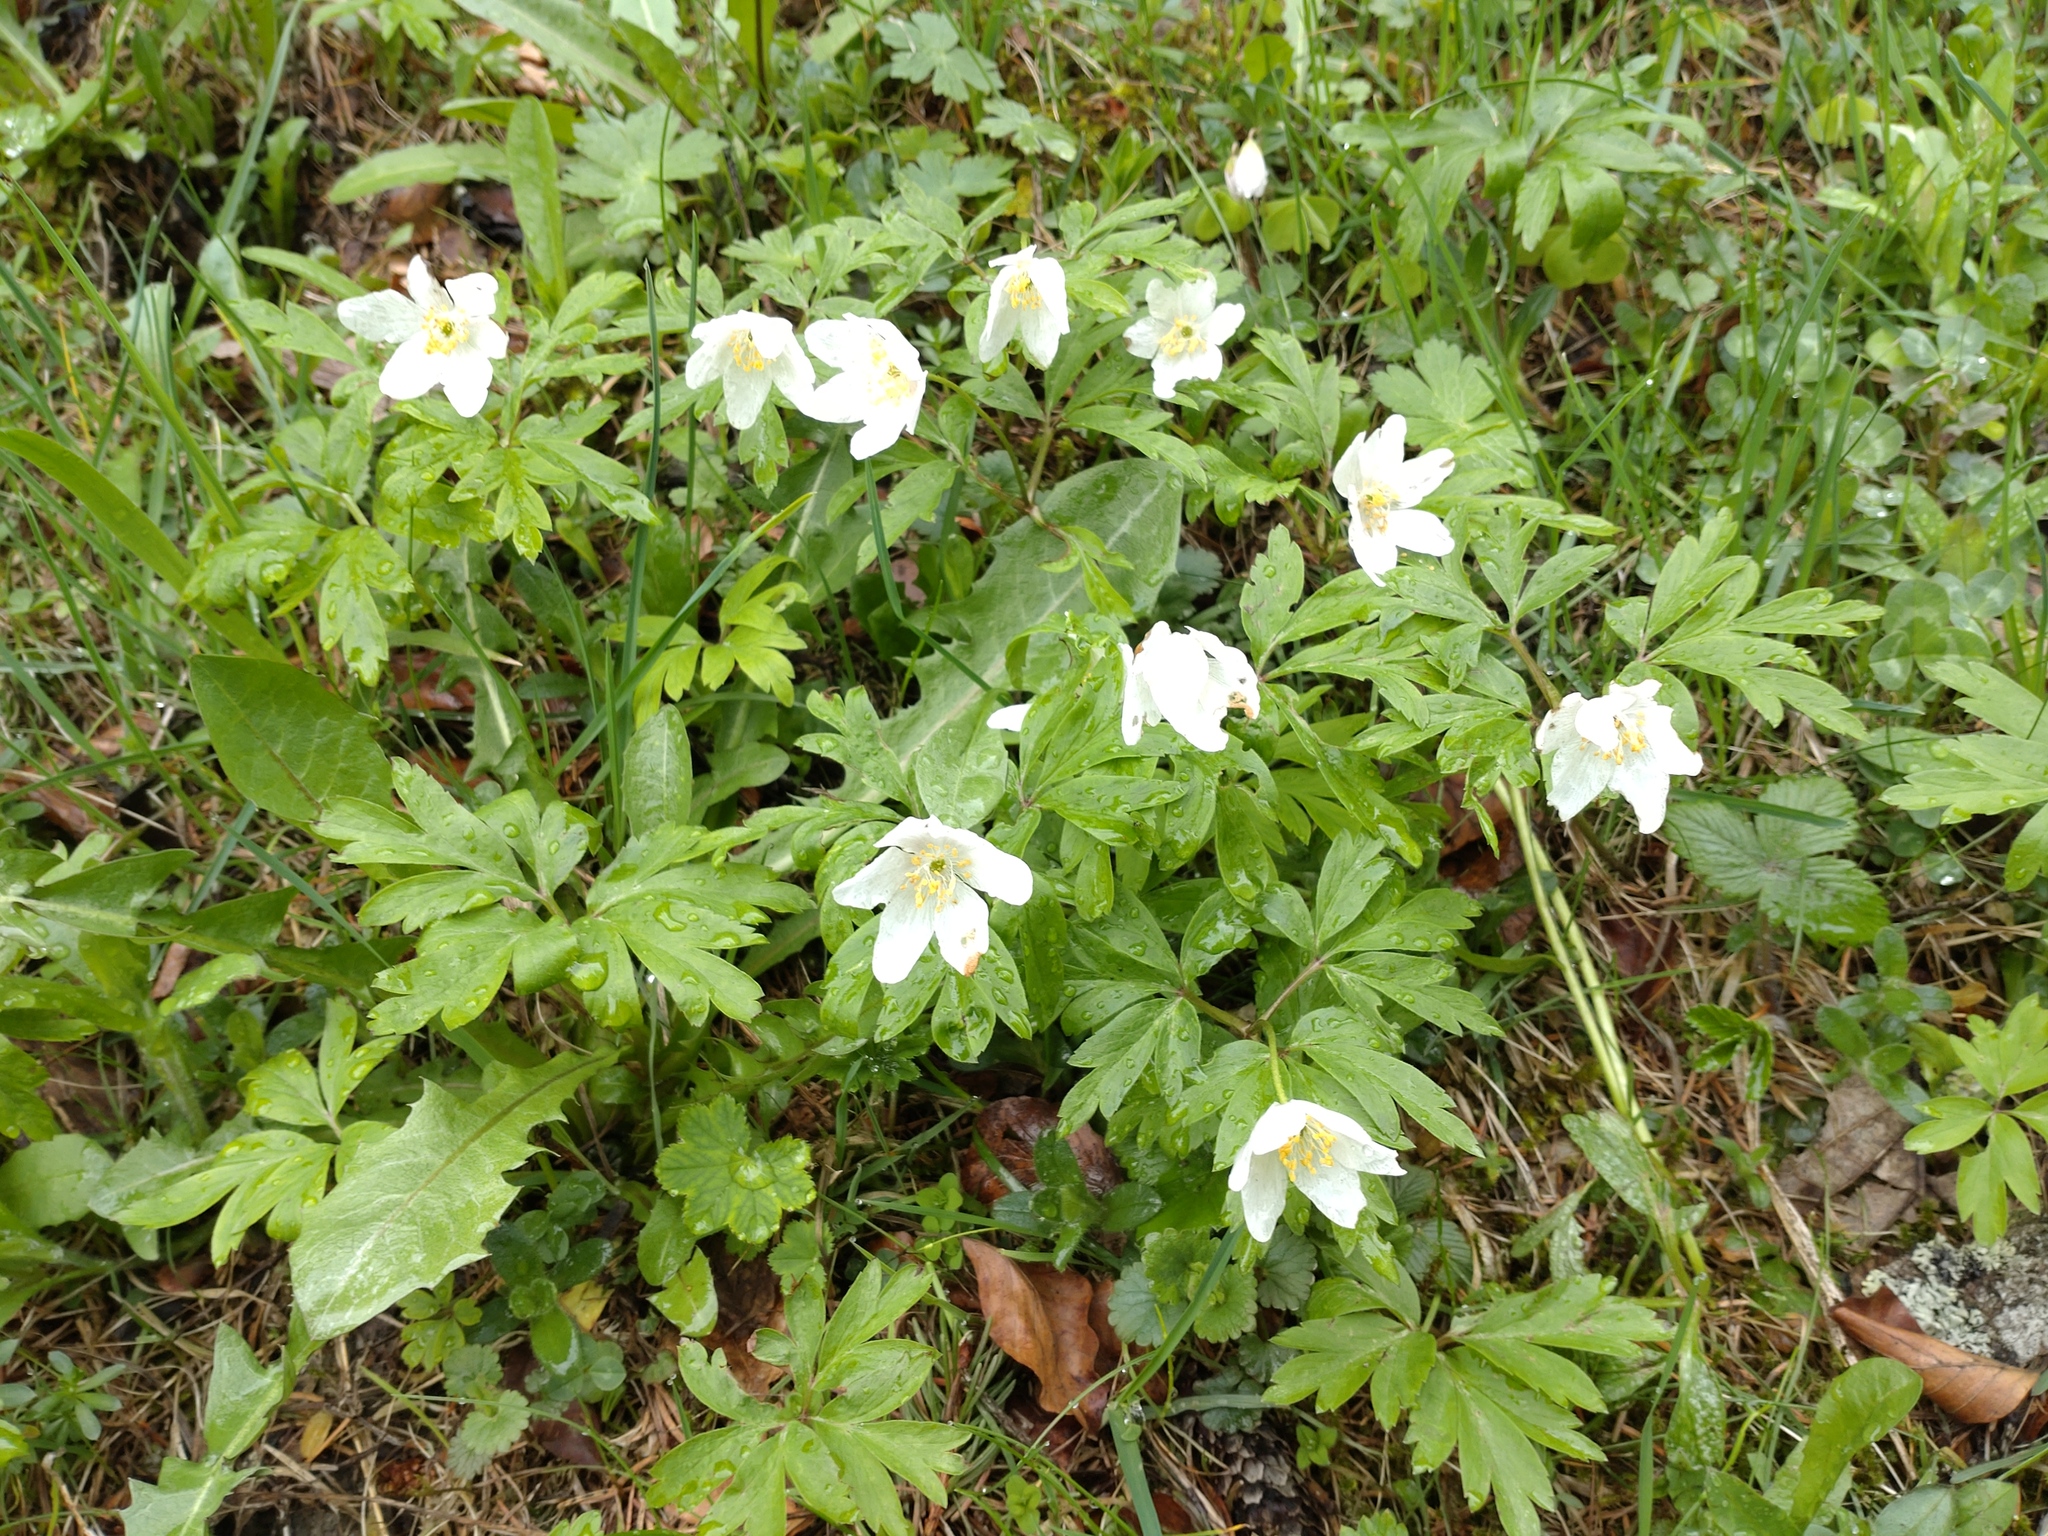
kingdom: Plantae
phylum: Tracheophyta
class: Magnoliopsida
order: Ranunculales
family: Ranunculaceae
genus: Anemone
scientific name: Anemone nemorosa
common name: Wood anemone
